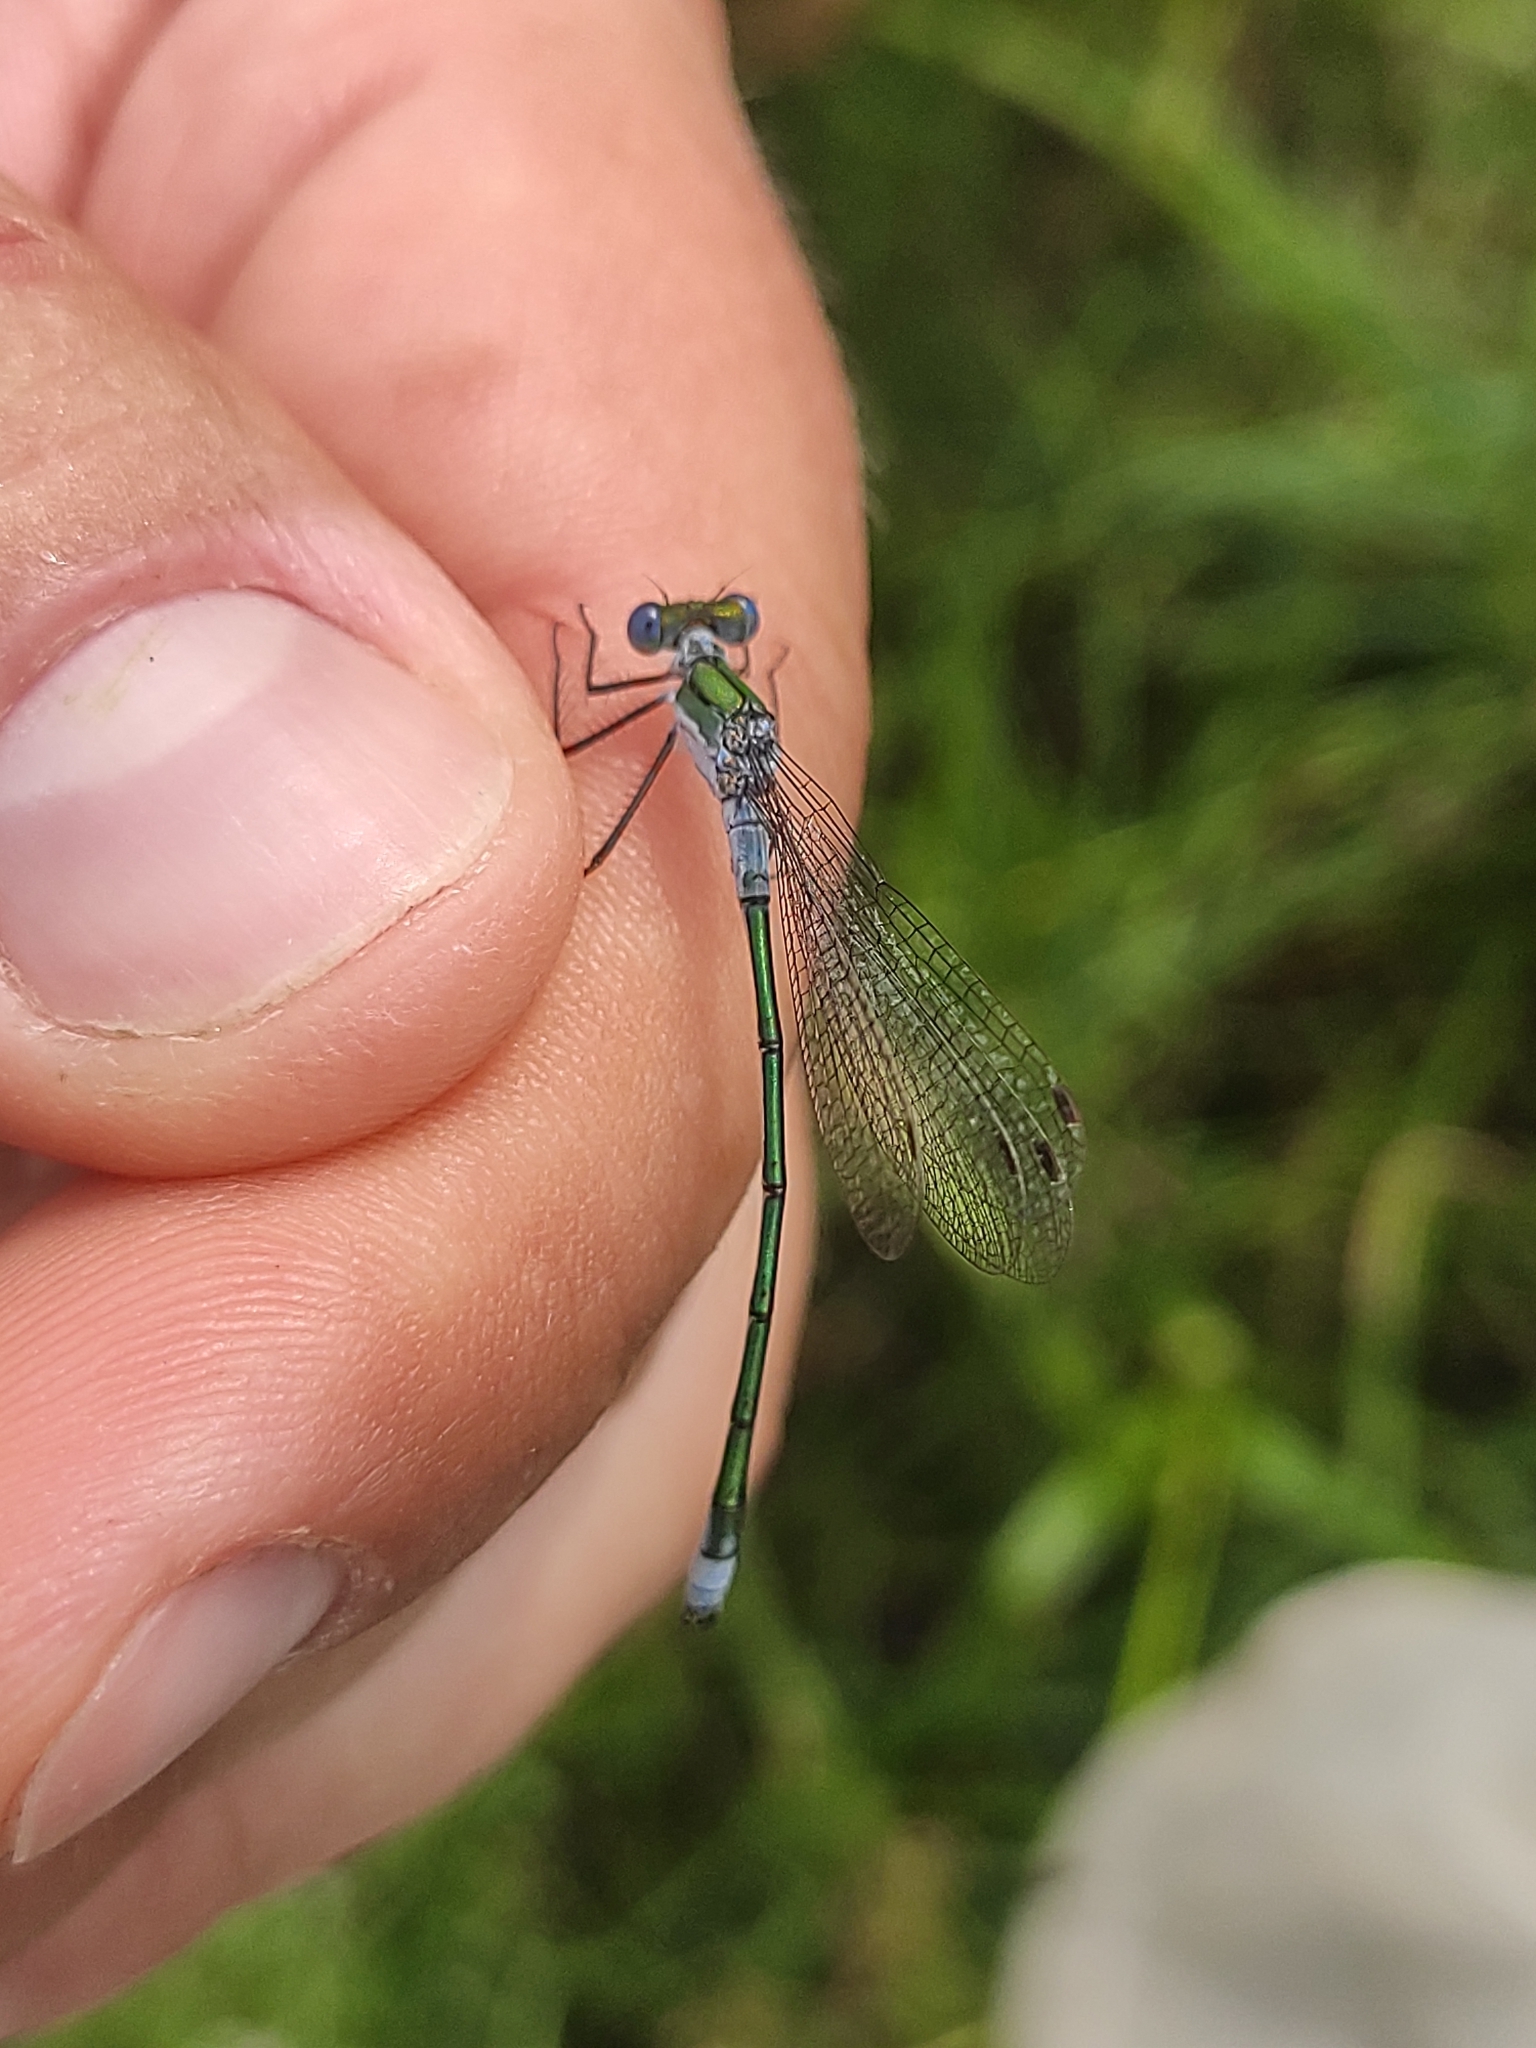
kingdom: Animalia
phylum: Arthropoda
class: Insecta
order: Odonata
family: Lestidae
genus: Lestes
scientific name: Lestes sponsa
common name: Common spreadwing
